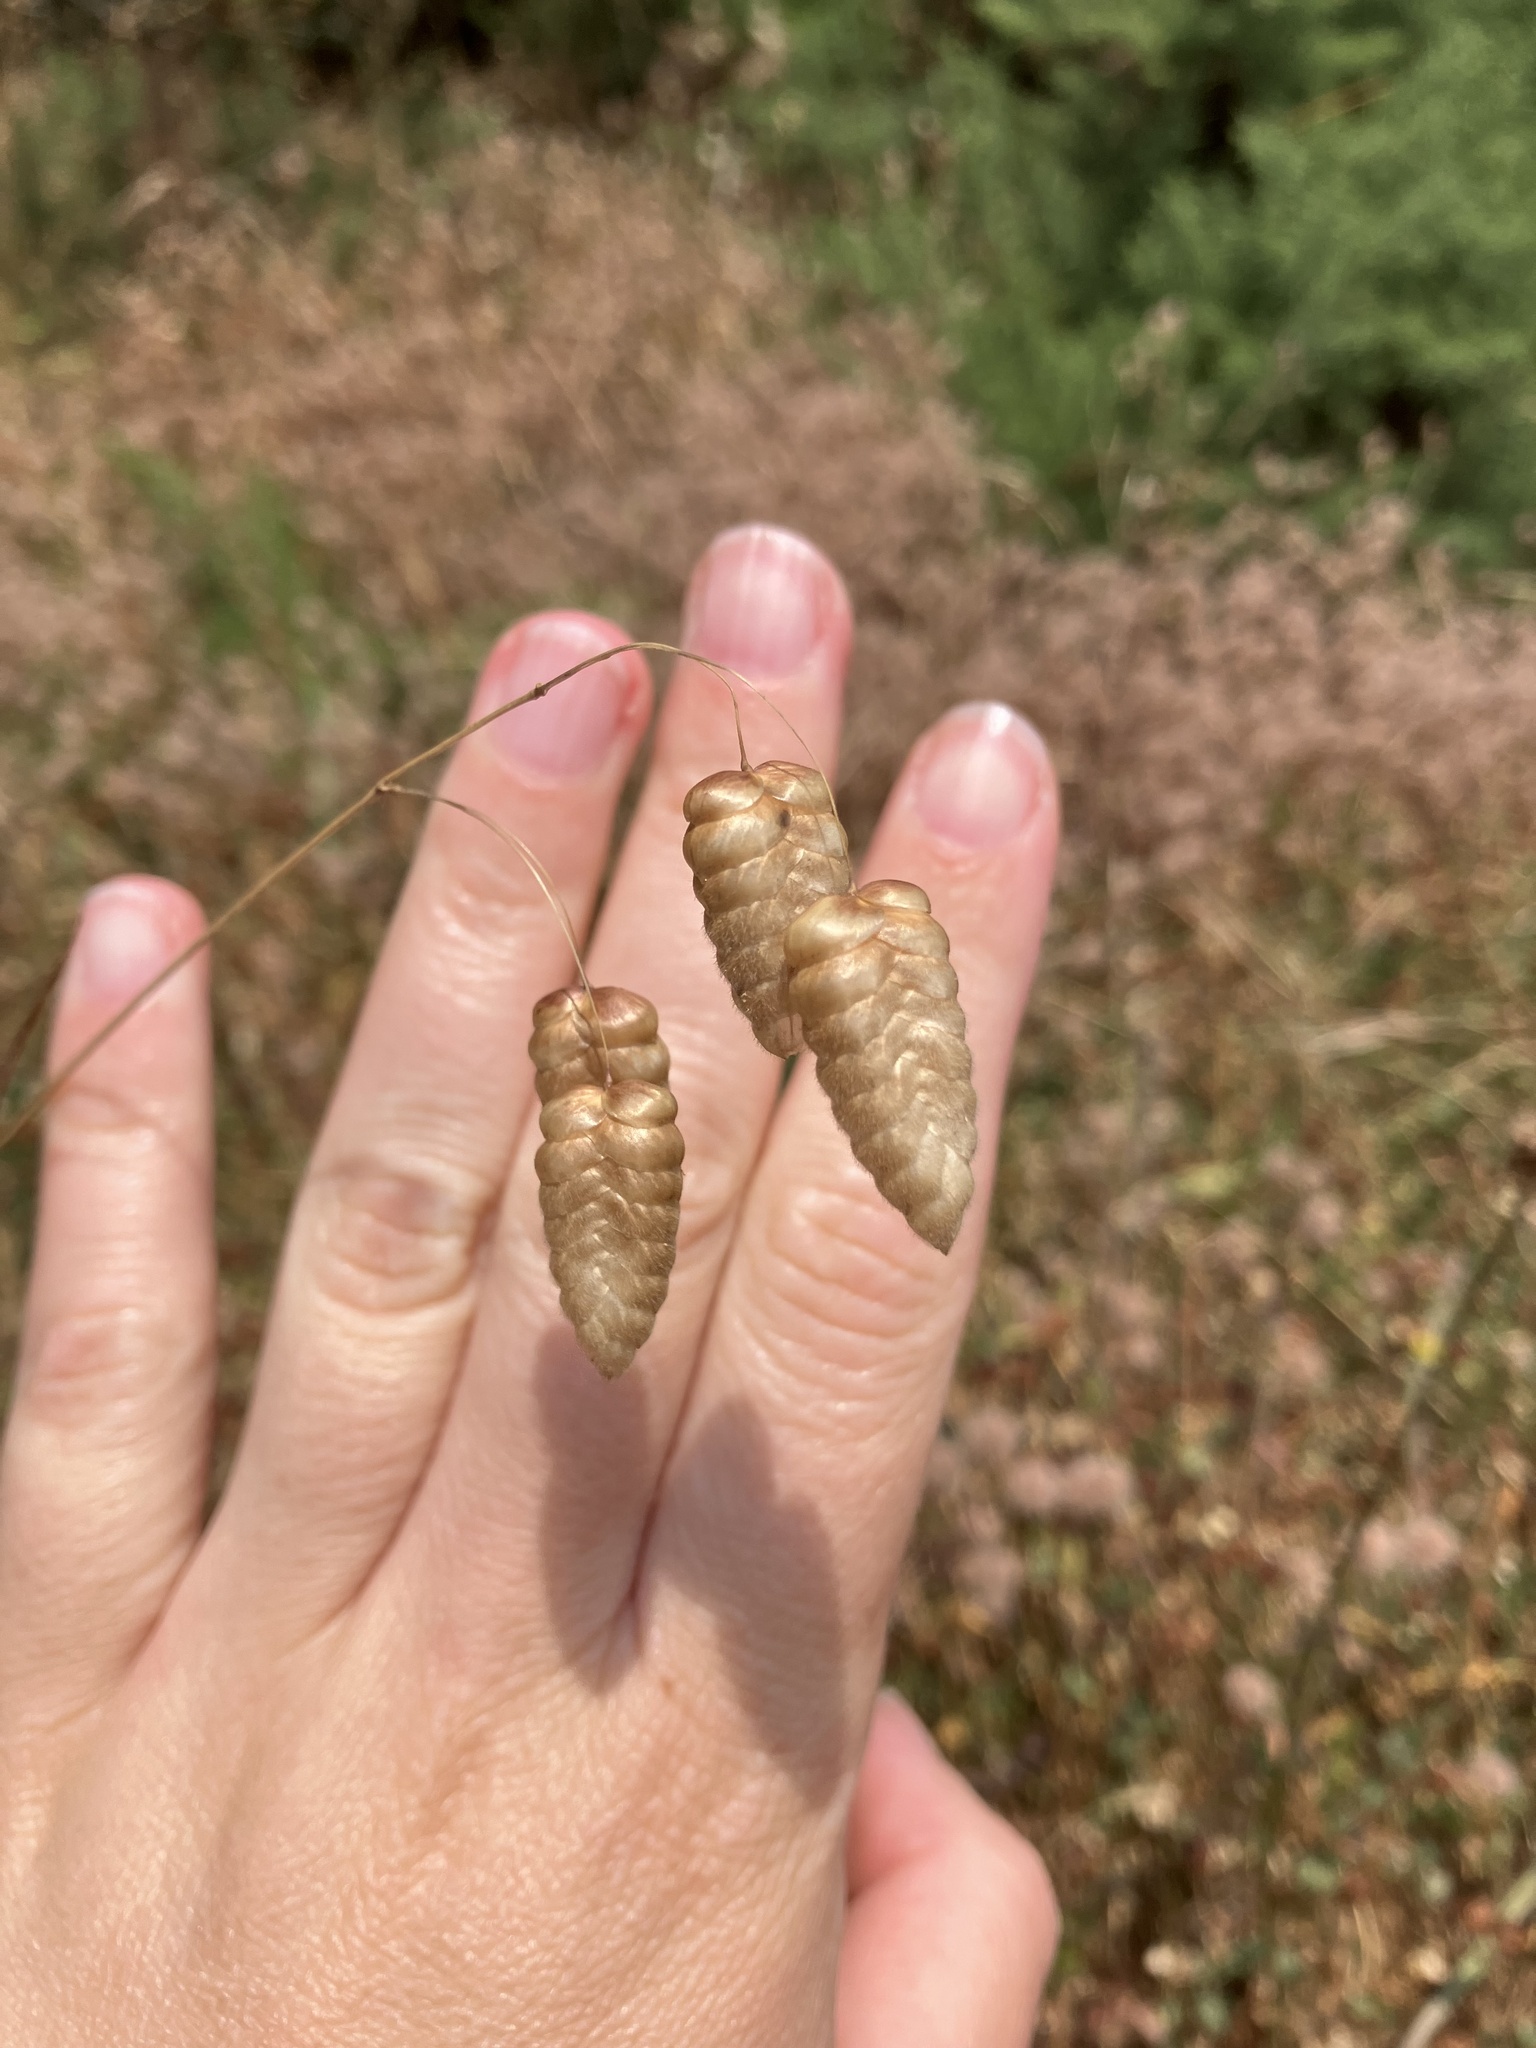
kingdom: Plantae
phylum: Tracheophyta
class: Liliopsida
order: Poales
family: Poaceae
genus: Briza
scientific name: Briza maxima
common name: Big quakinggrass
